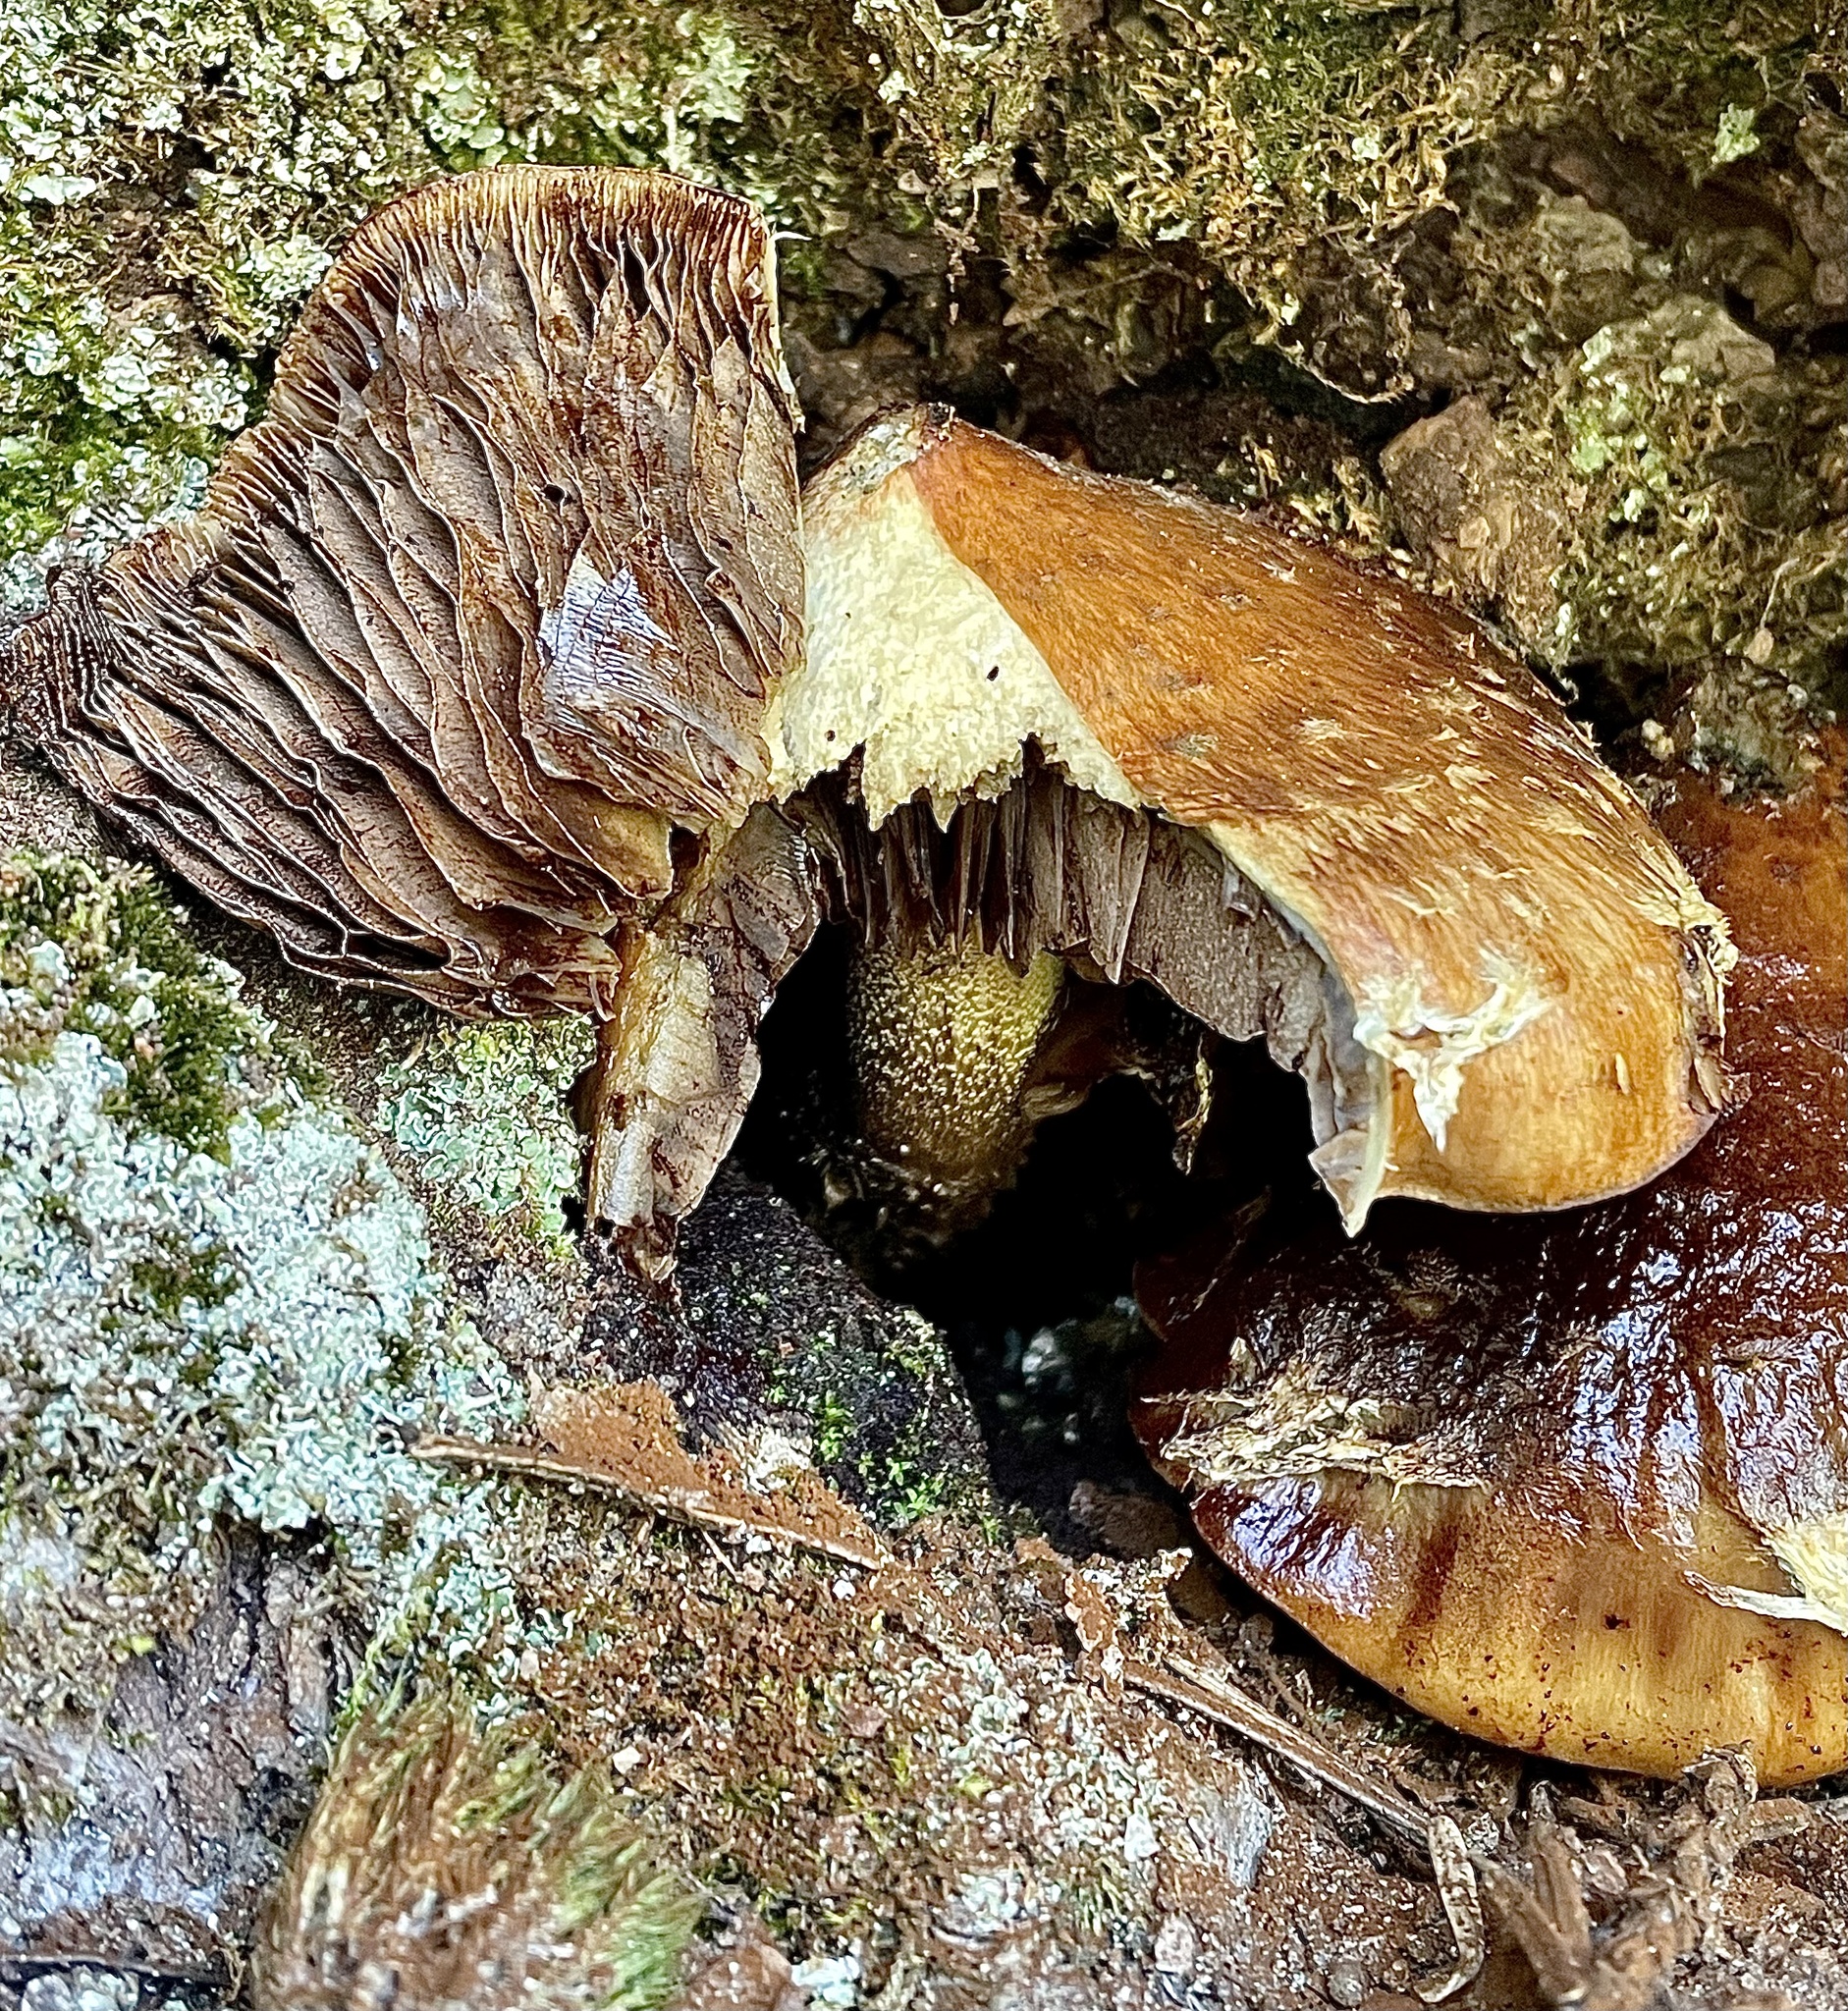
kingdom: Fungi
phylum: Basidiomycota
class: Agaricomycetes
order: Agaricales
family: Tubariaceae
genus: Hemistropharia
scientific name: Hemistropharia albocrenulata
